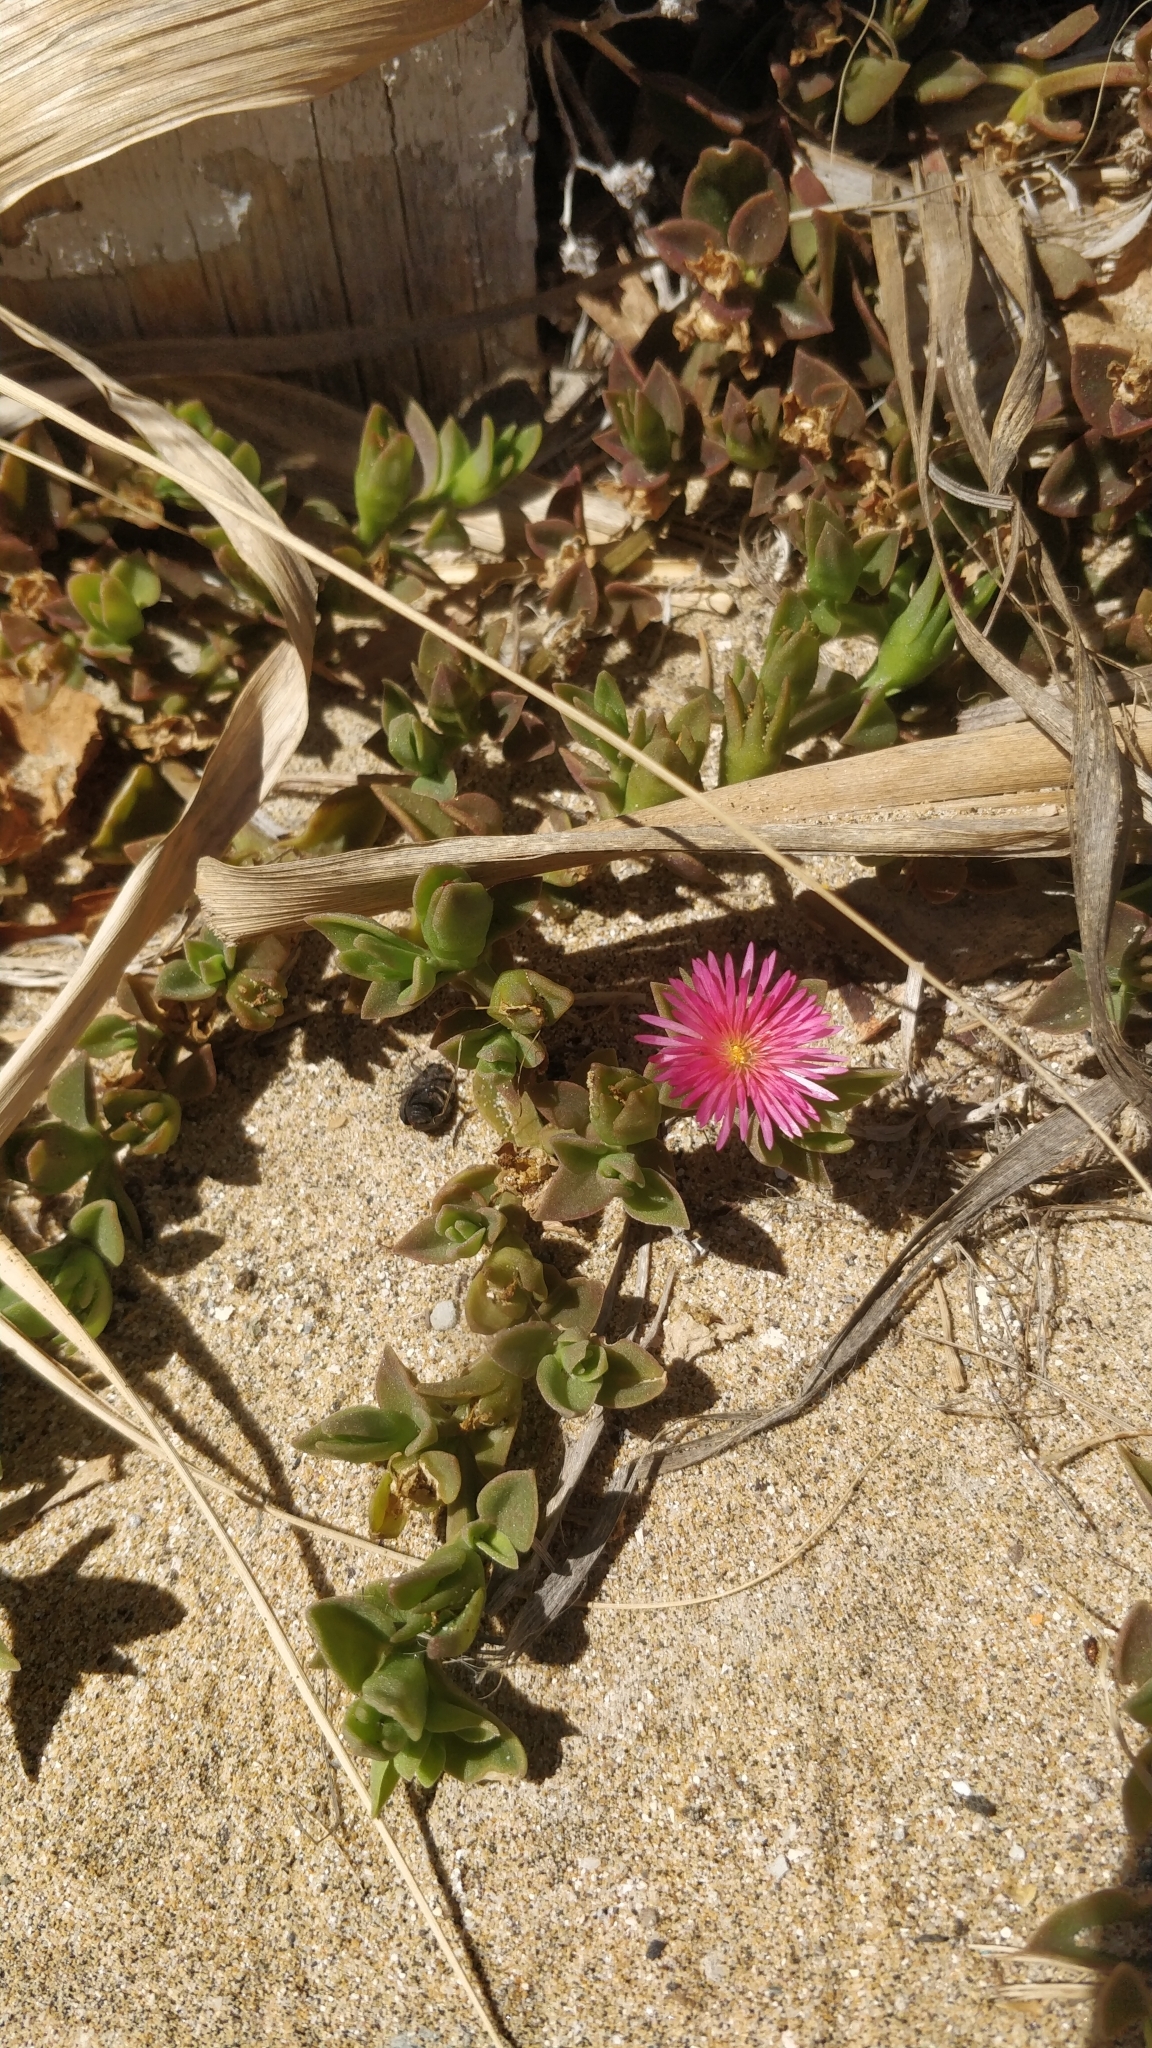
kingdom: Plantae
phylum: Tracheophyta
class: Magnoliopsida
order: Caryophyllales
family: Aizoaceae
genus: Mesembryanthemum
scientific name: Mesembryanthemum cordifolium
